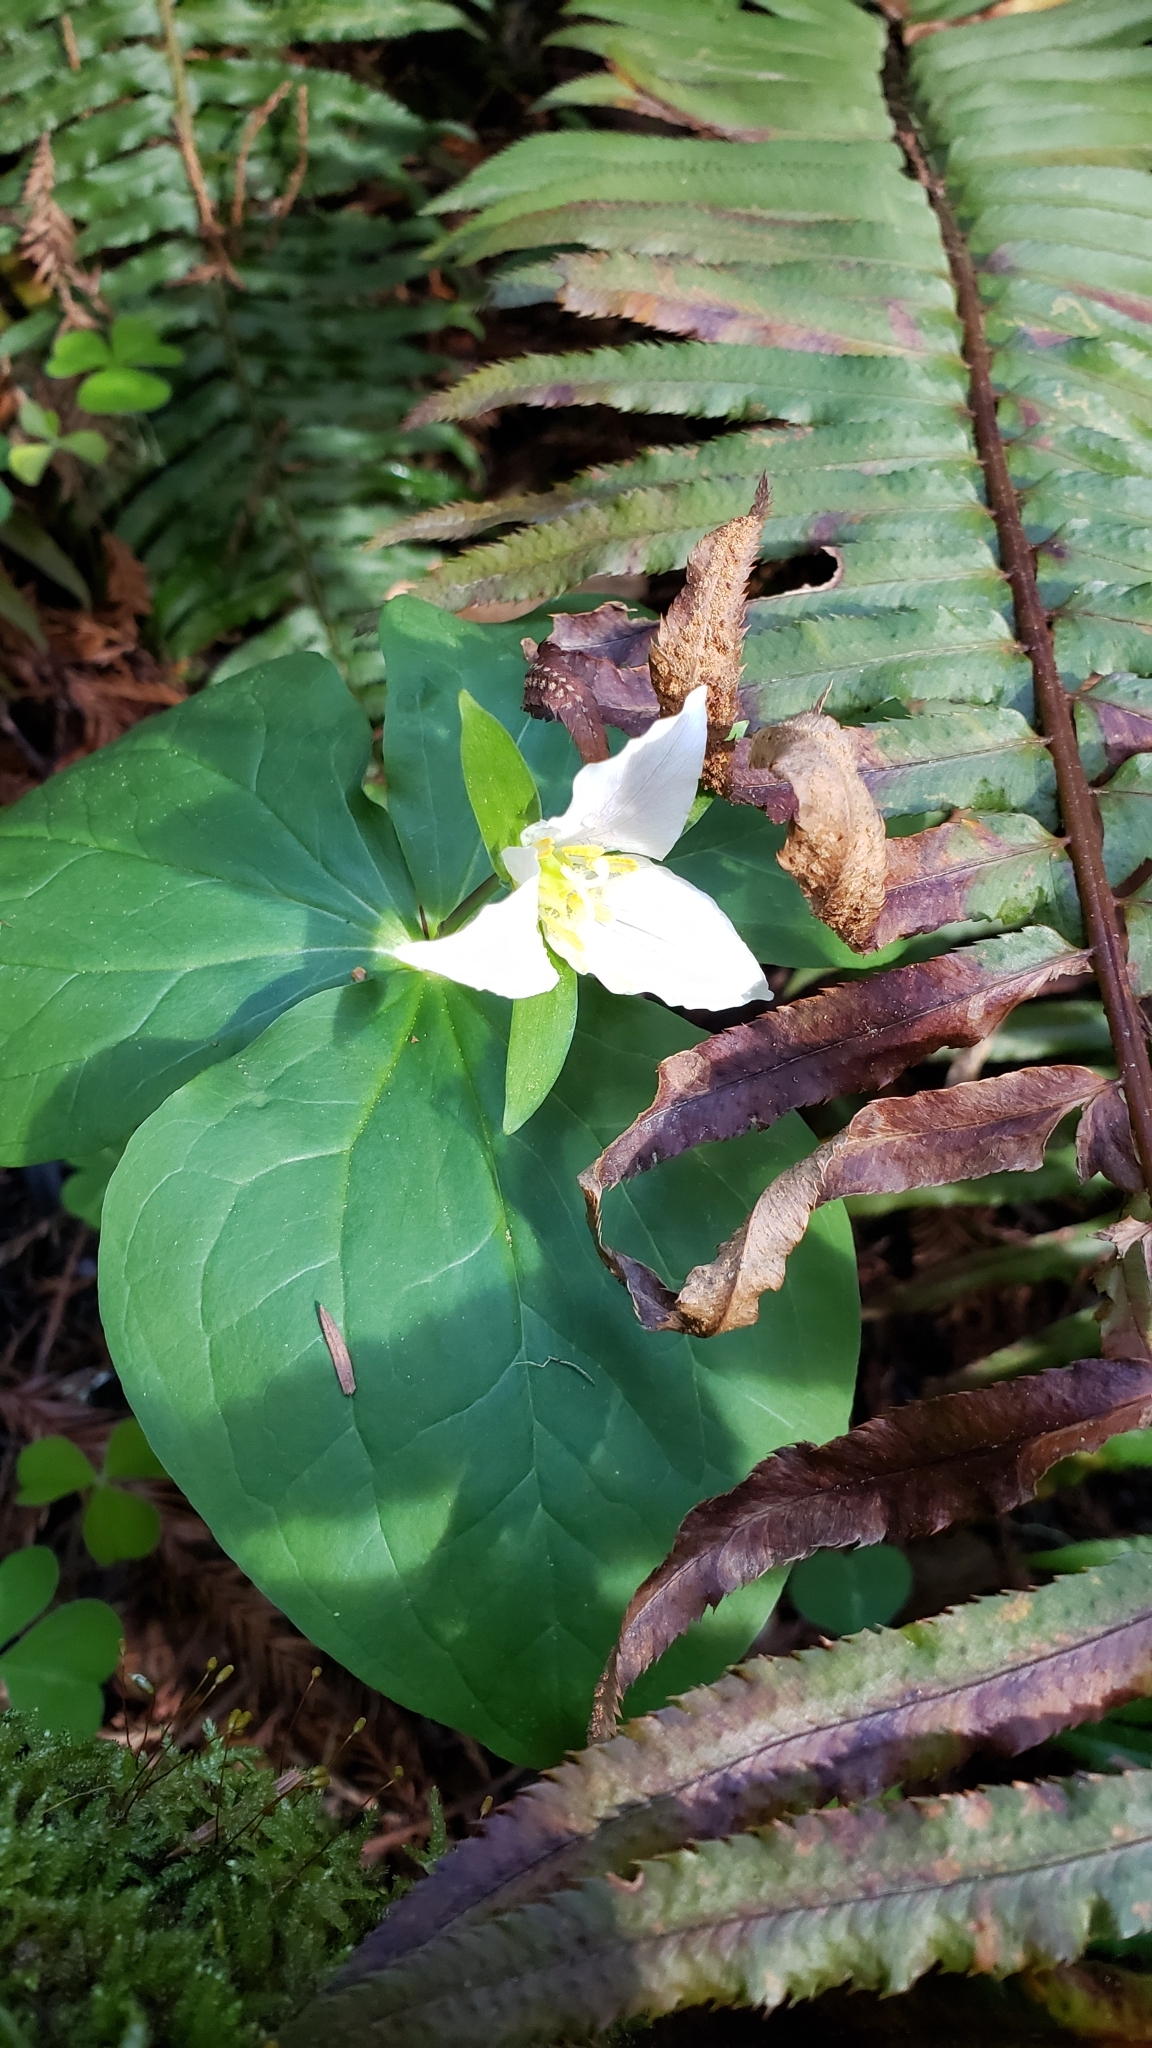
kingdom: Plantae
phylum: Tracheophyta
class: Liliopsida
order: Liliales
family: Melanthiaceae
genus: Trillium
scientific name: Trillium ovatum
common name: Pacific trillium
